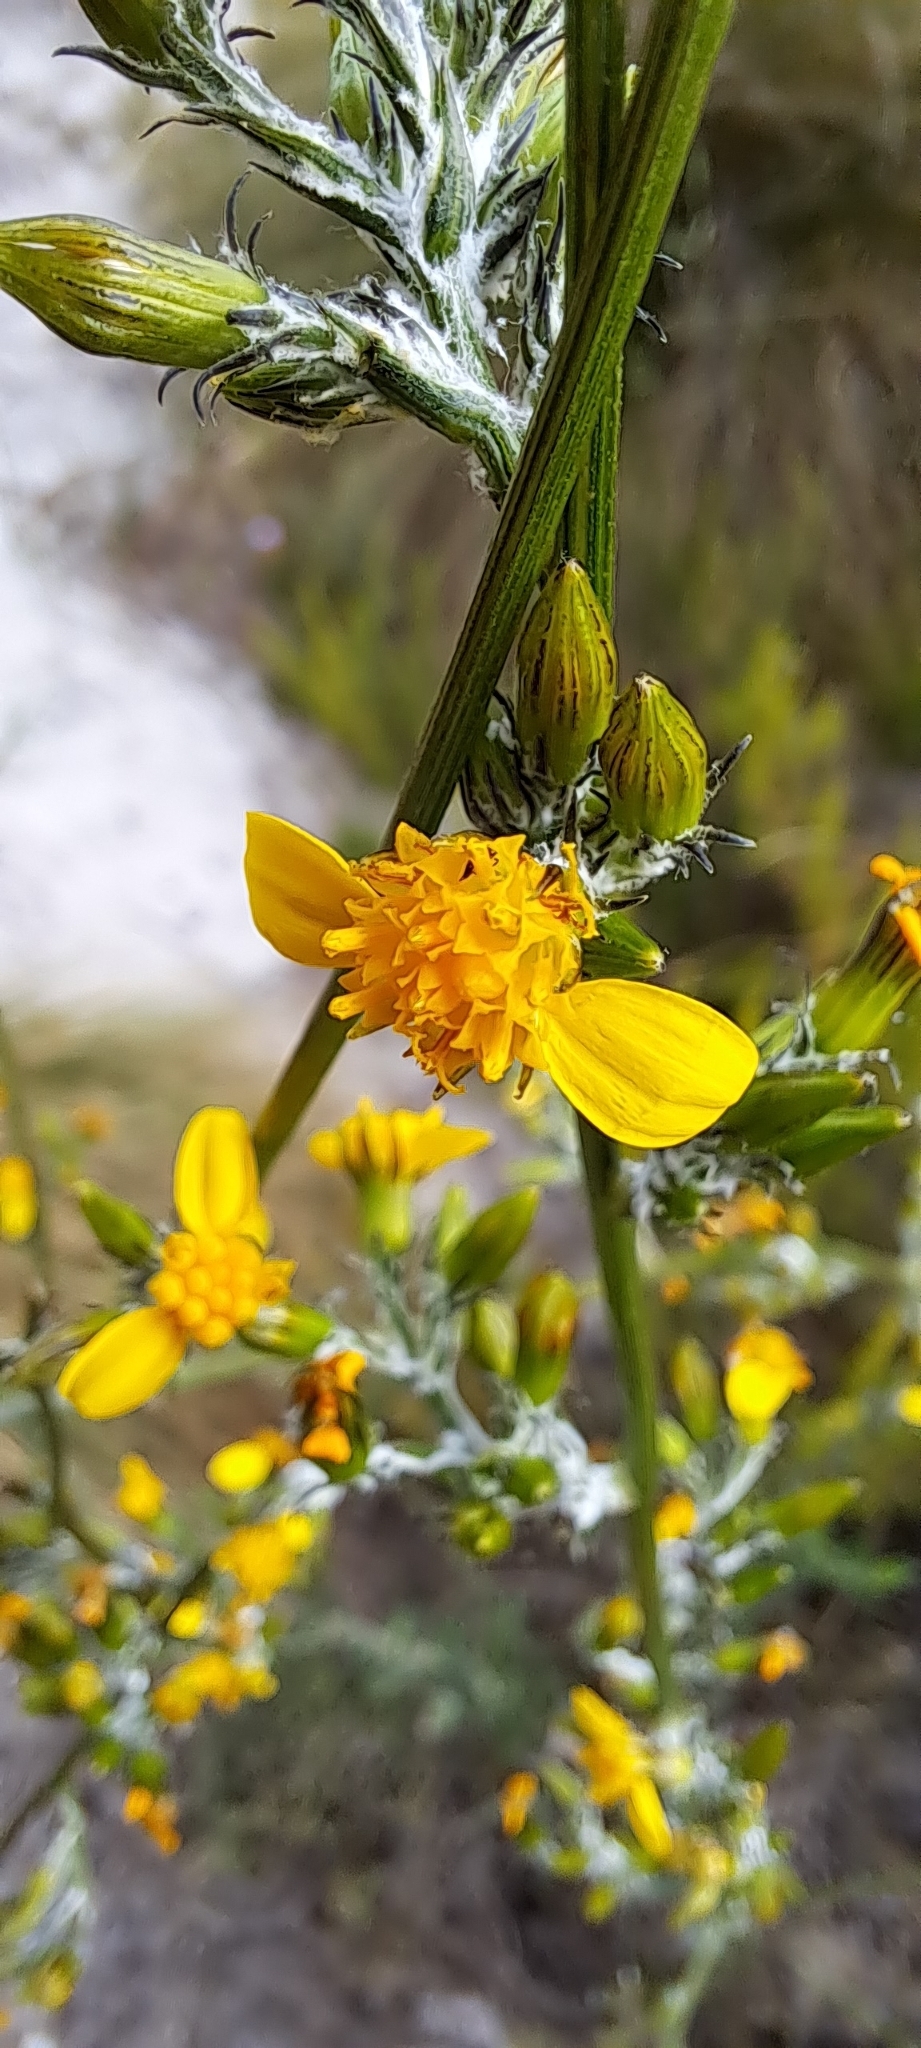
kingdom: Plantae
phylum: Tracheophyta
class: Magnoliopsida
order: Asterales
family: Asteraceae
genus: Senecio
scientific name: Senecio pubigerus
